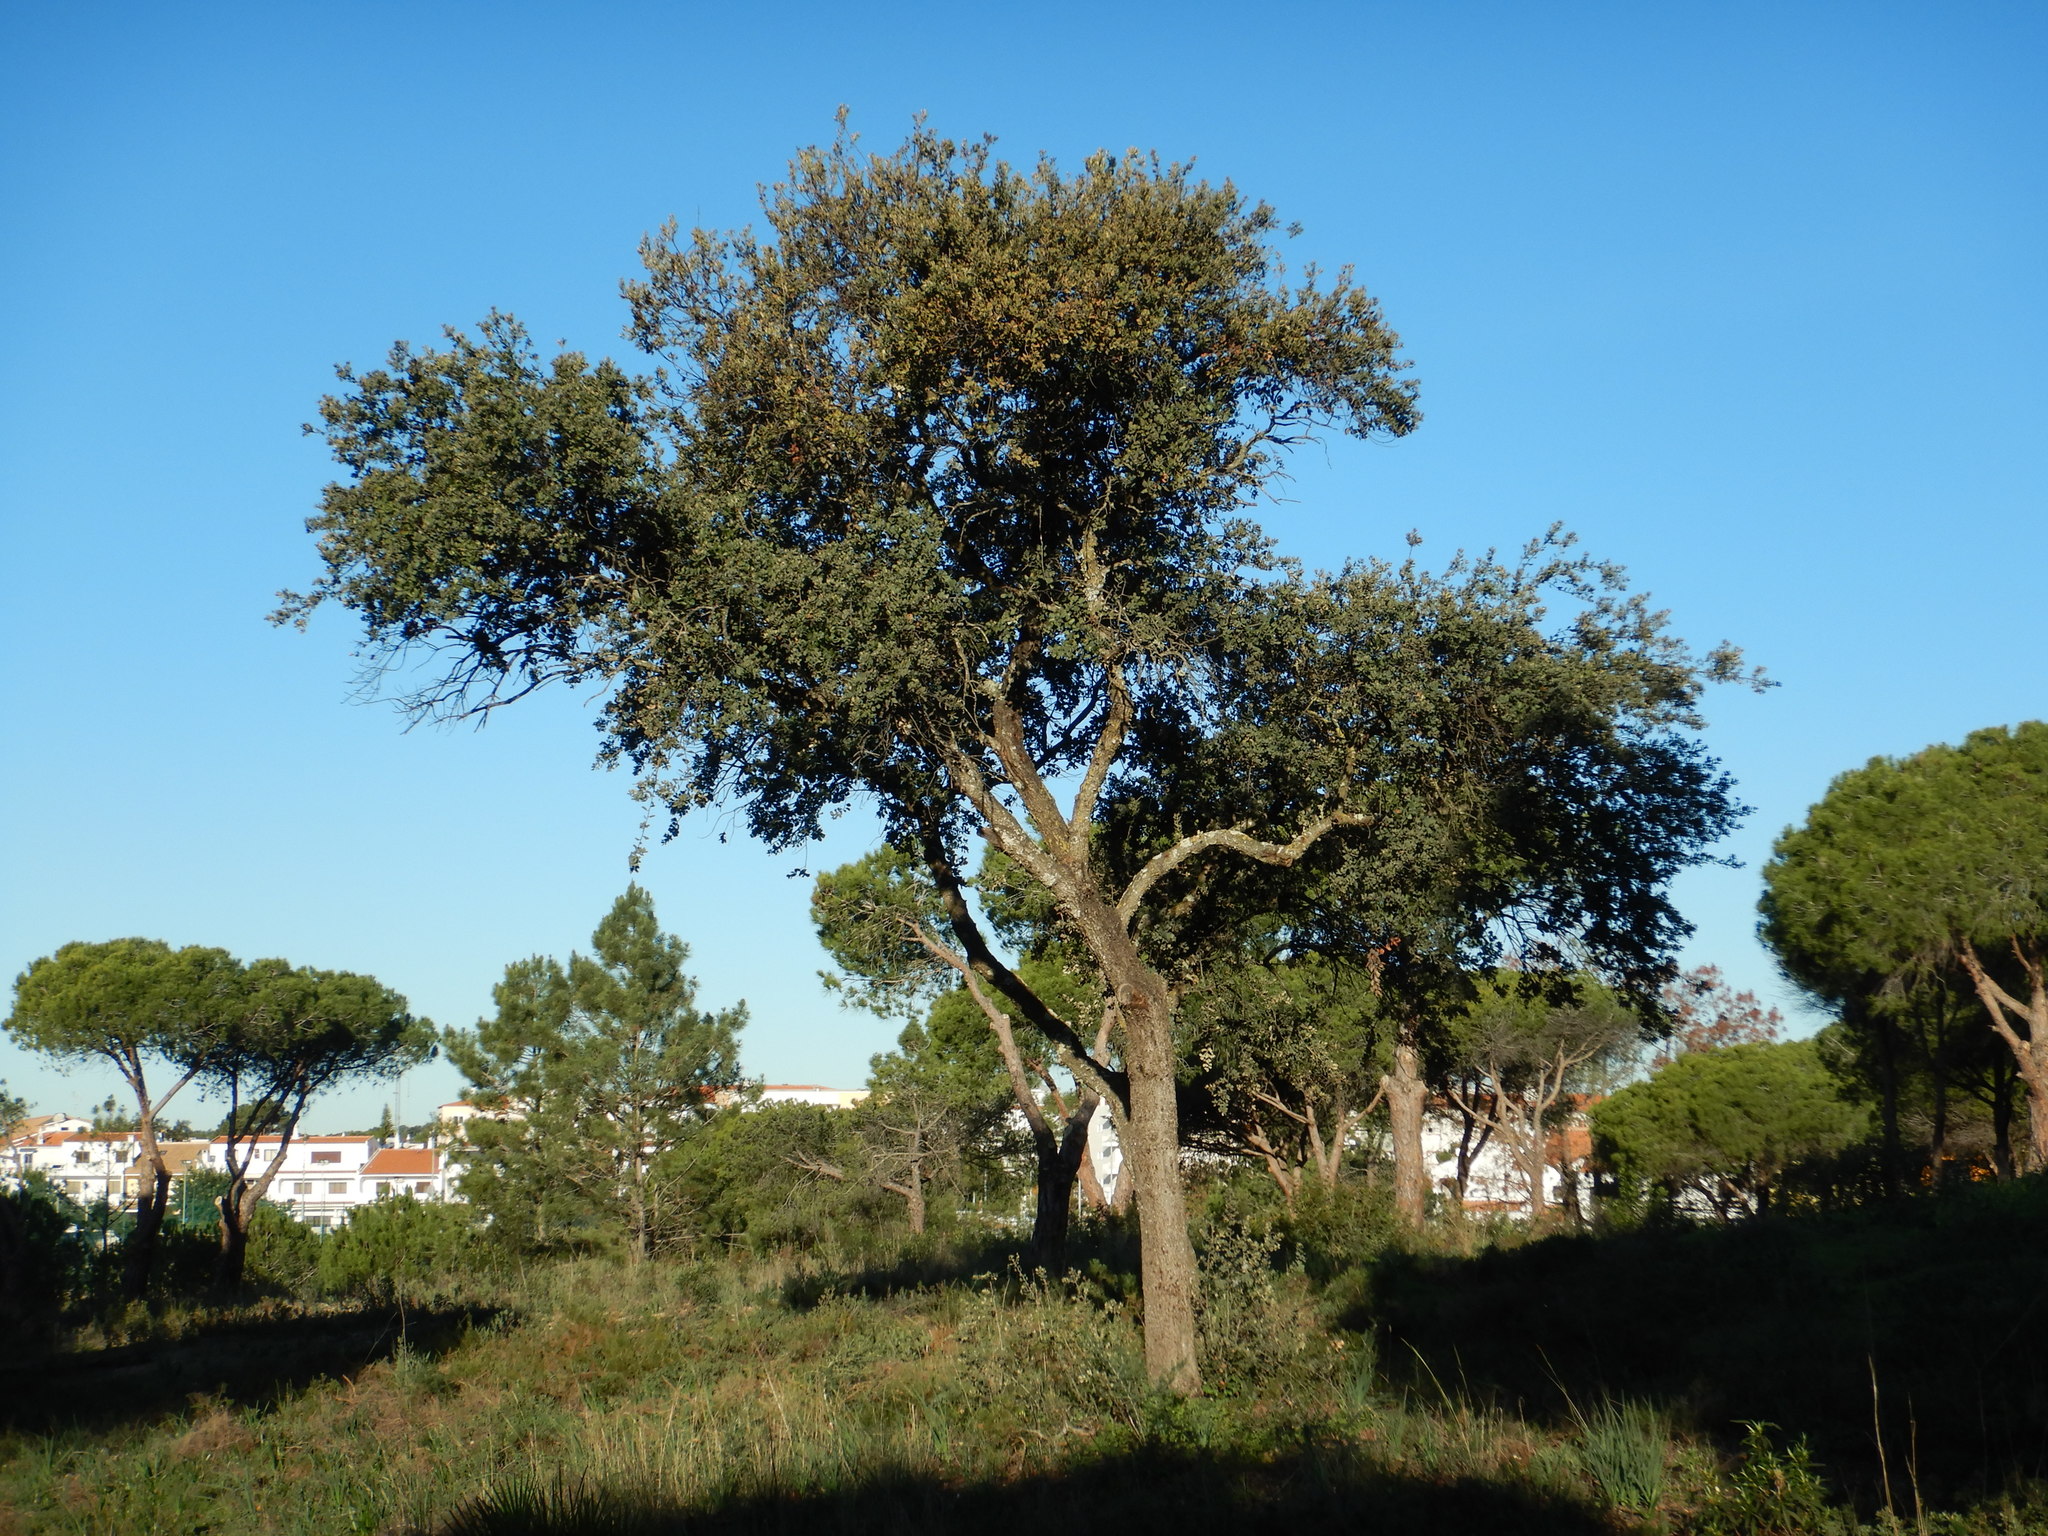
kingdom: Plantae
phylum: Tracheophyta
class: Magnoliopsida
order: Fagales
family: Fagaceae
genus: Quercus
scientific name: Quercus rotundifolia
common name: Holm oak
